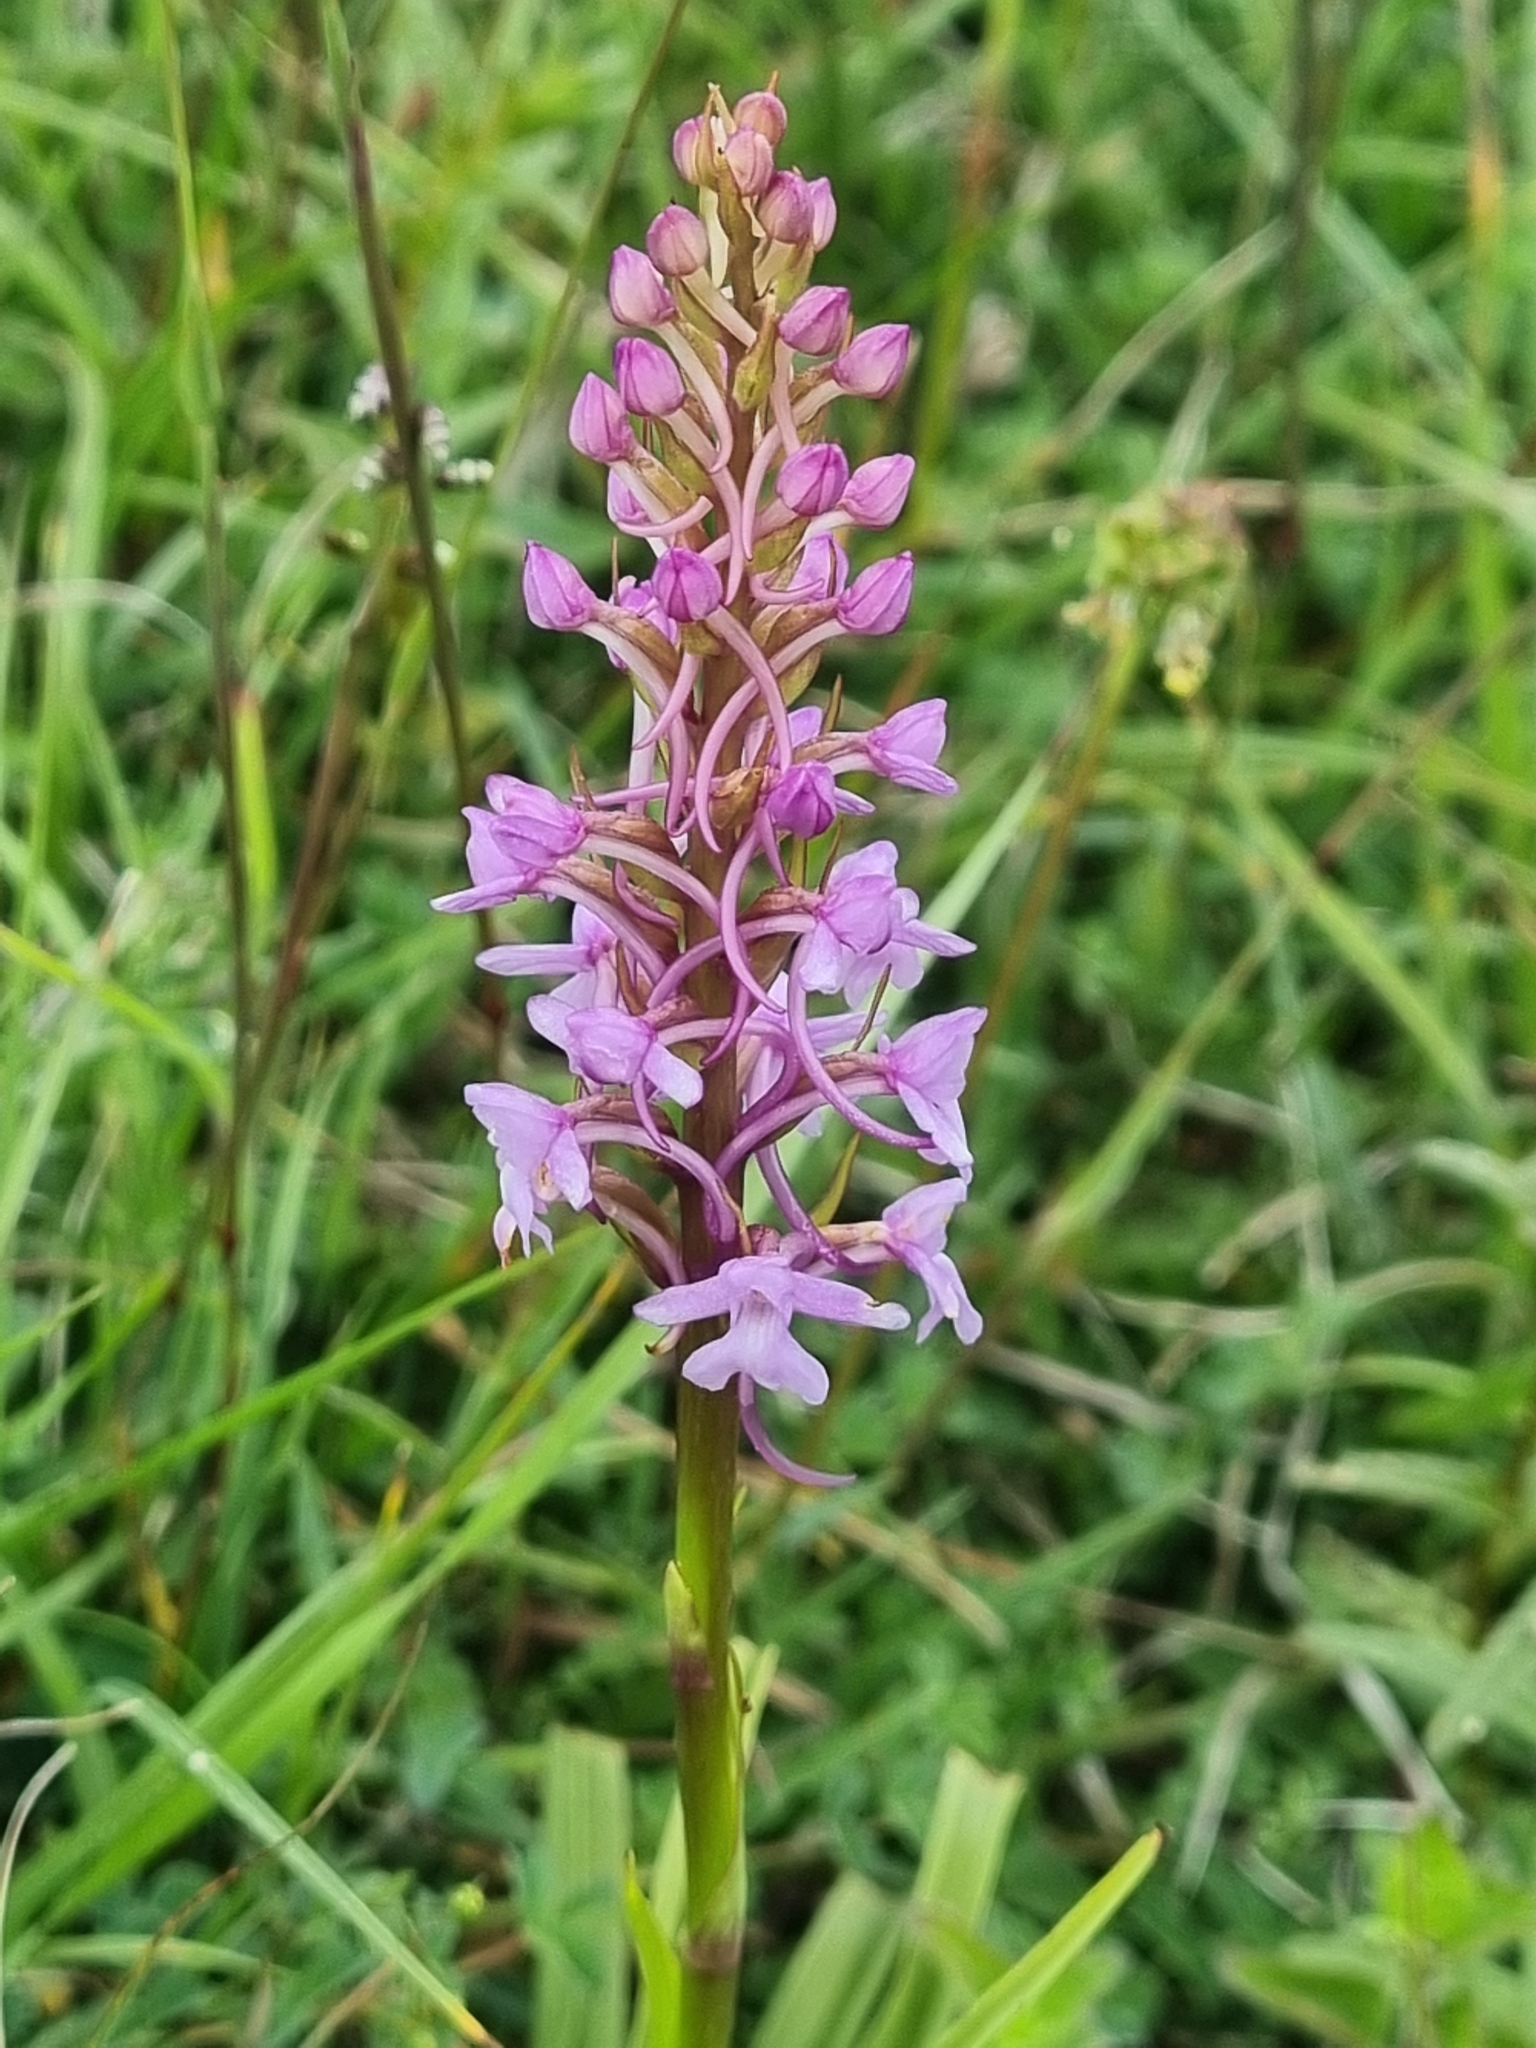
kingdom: Plantae
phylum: Tracheophyta
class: Liliopsida
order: Asparagales
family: Orchidaceae
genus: Gymnadenia
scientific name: Gymnadenia conopsea
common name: Fragrant orchid
